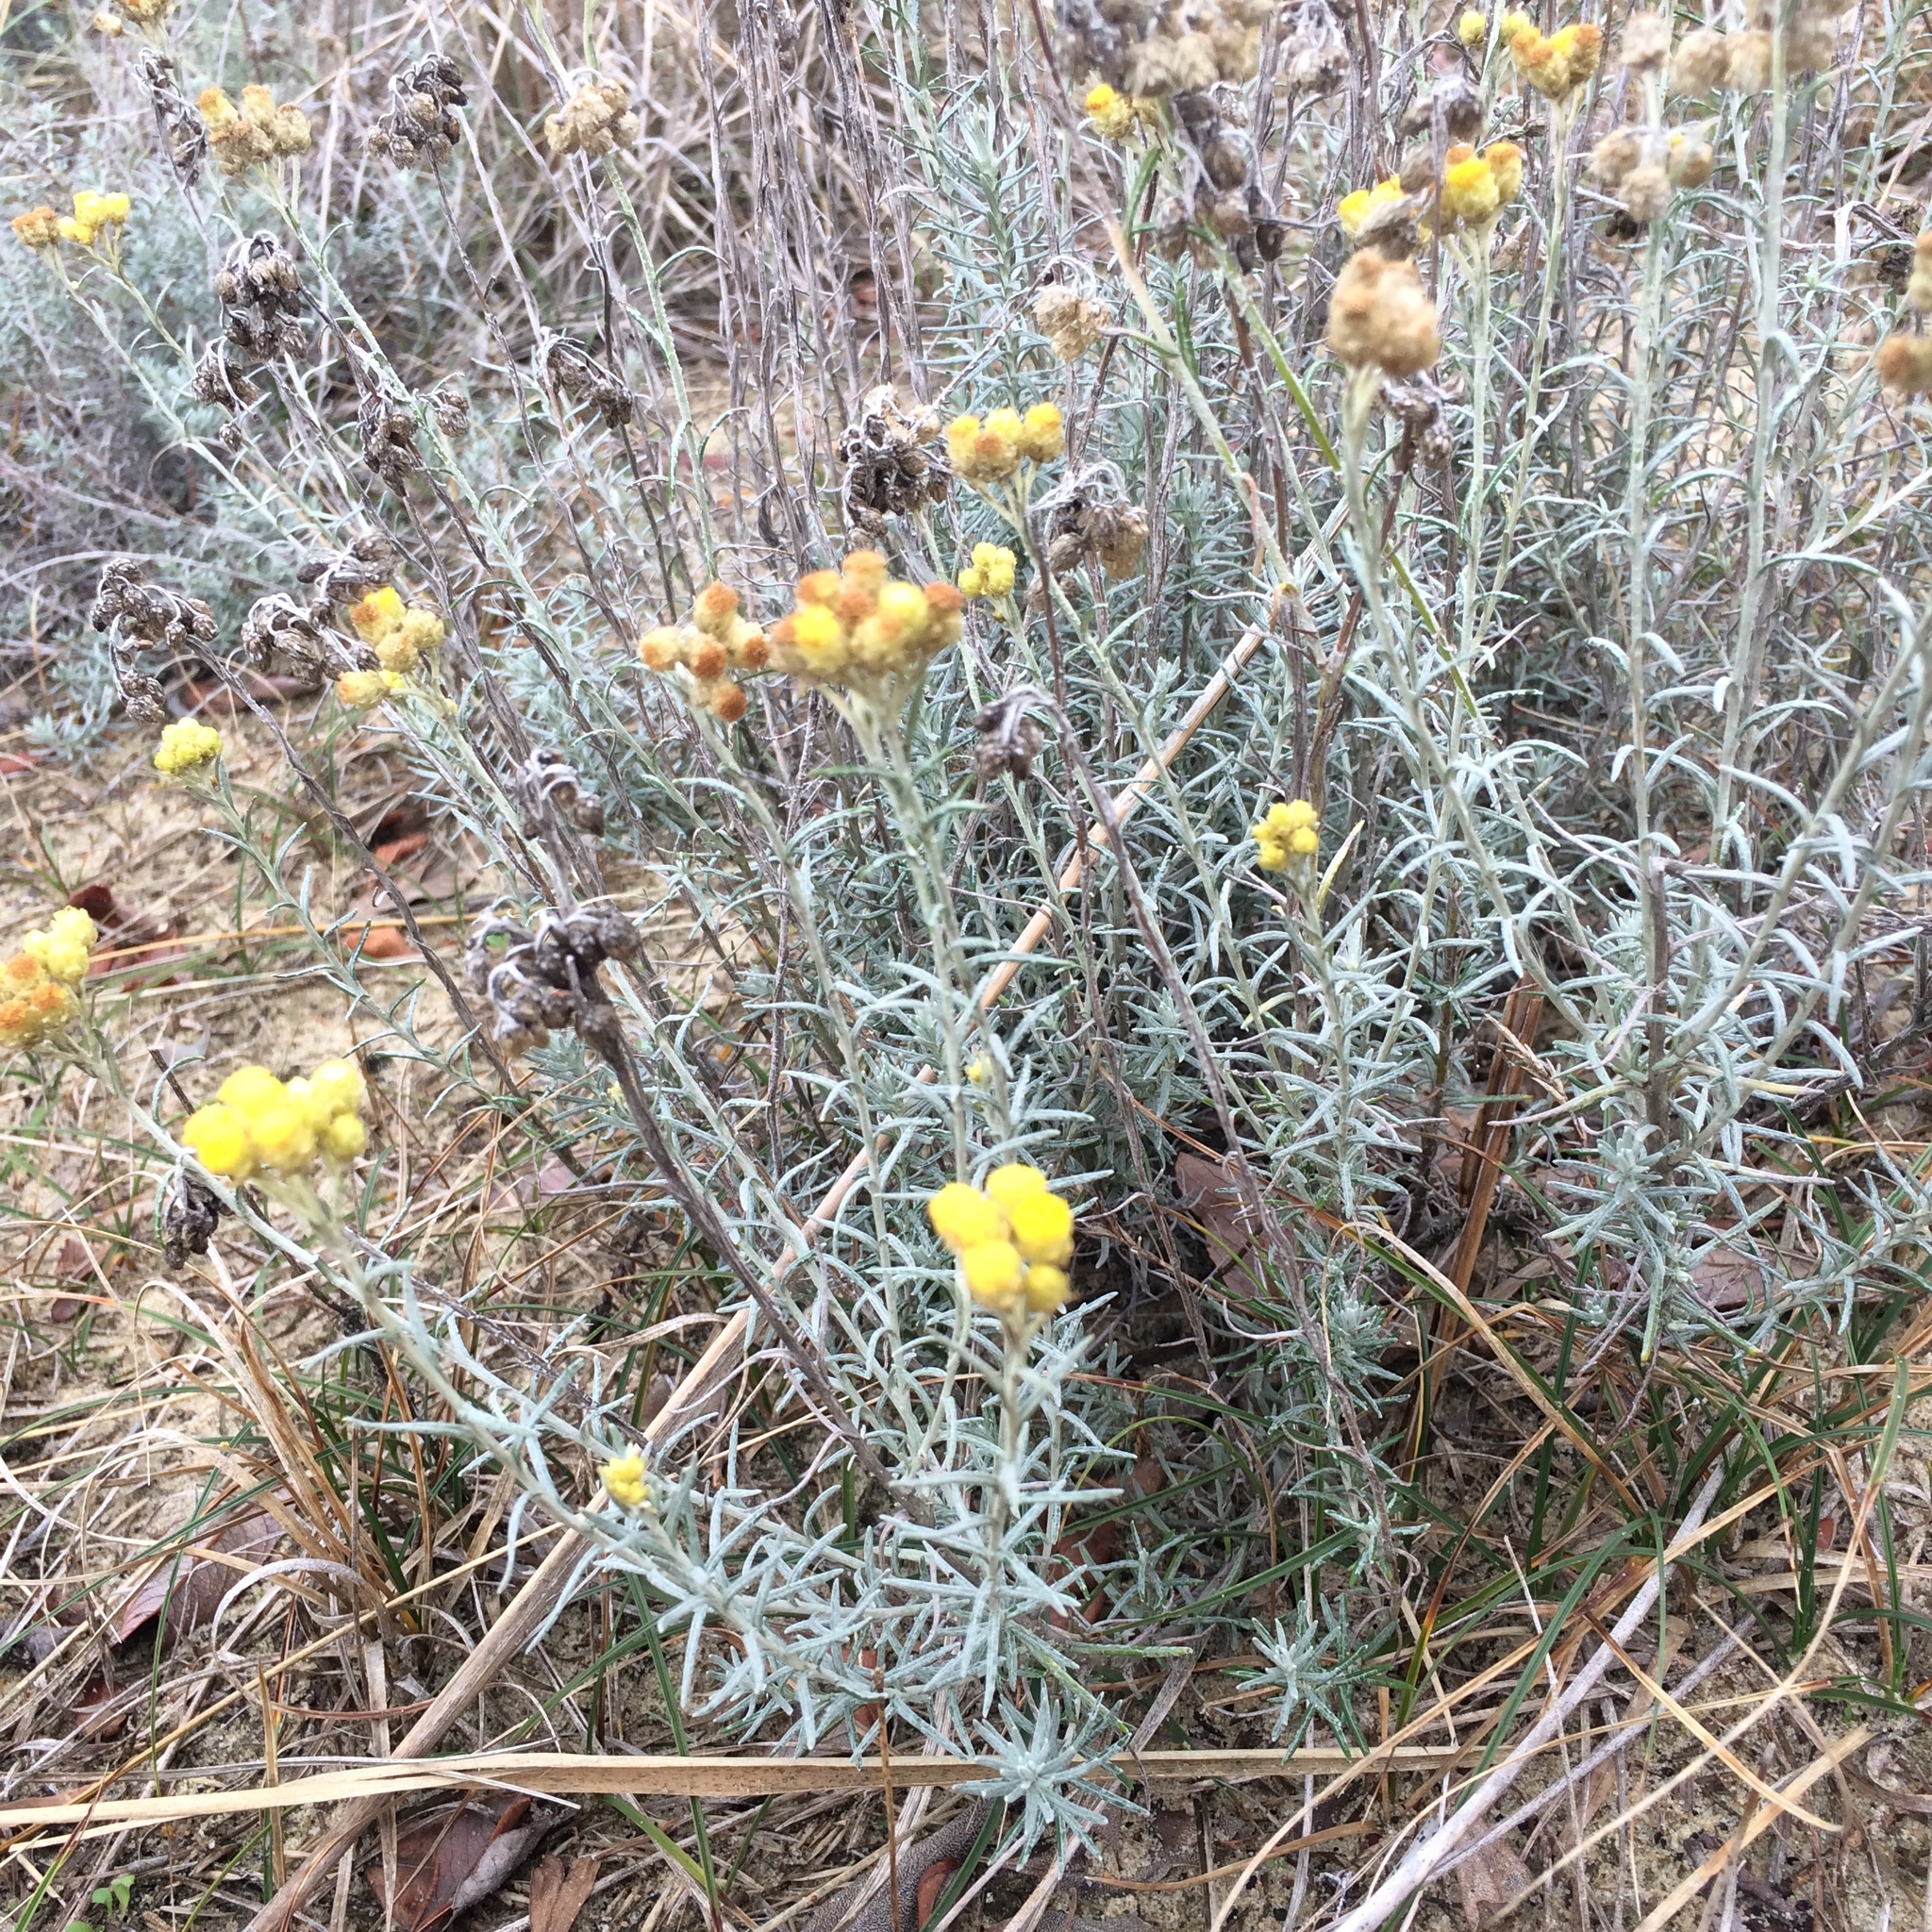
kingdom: Plantae
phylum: Tracheophyta
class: Magnoliopsida
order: Asterales
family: Asteraceae
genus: Helichrysum
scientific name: Helichrysum stoechas
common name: Goldilocks
